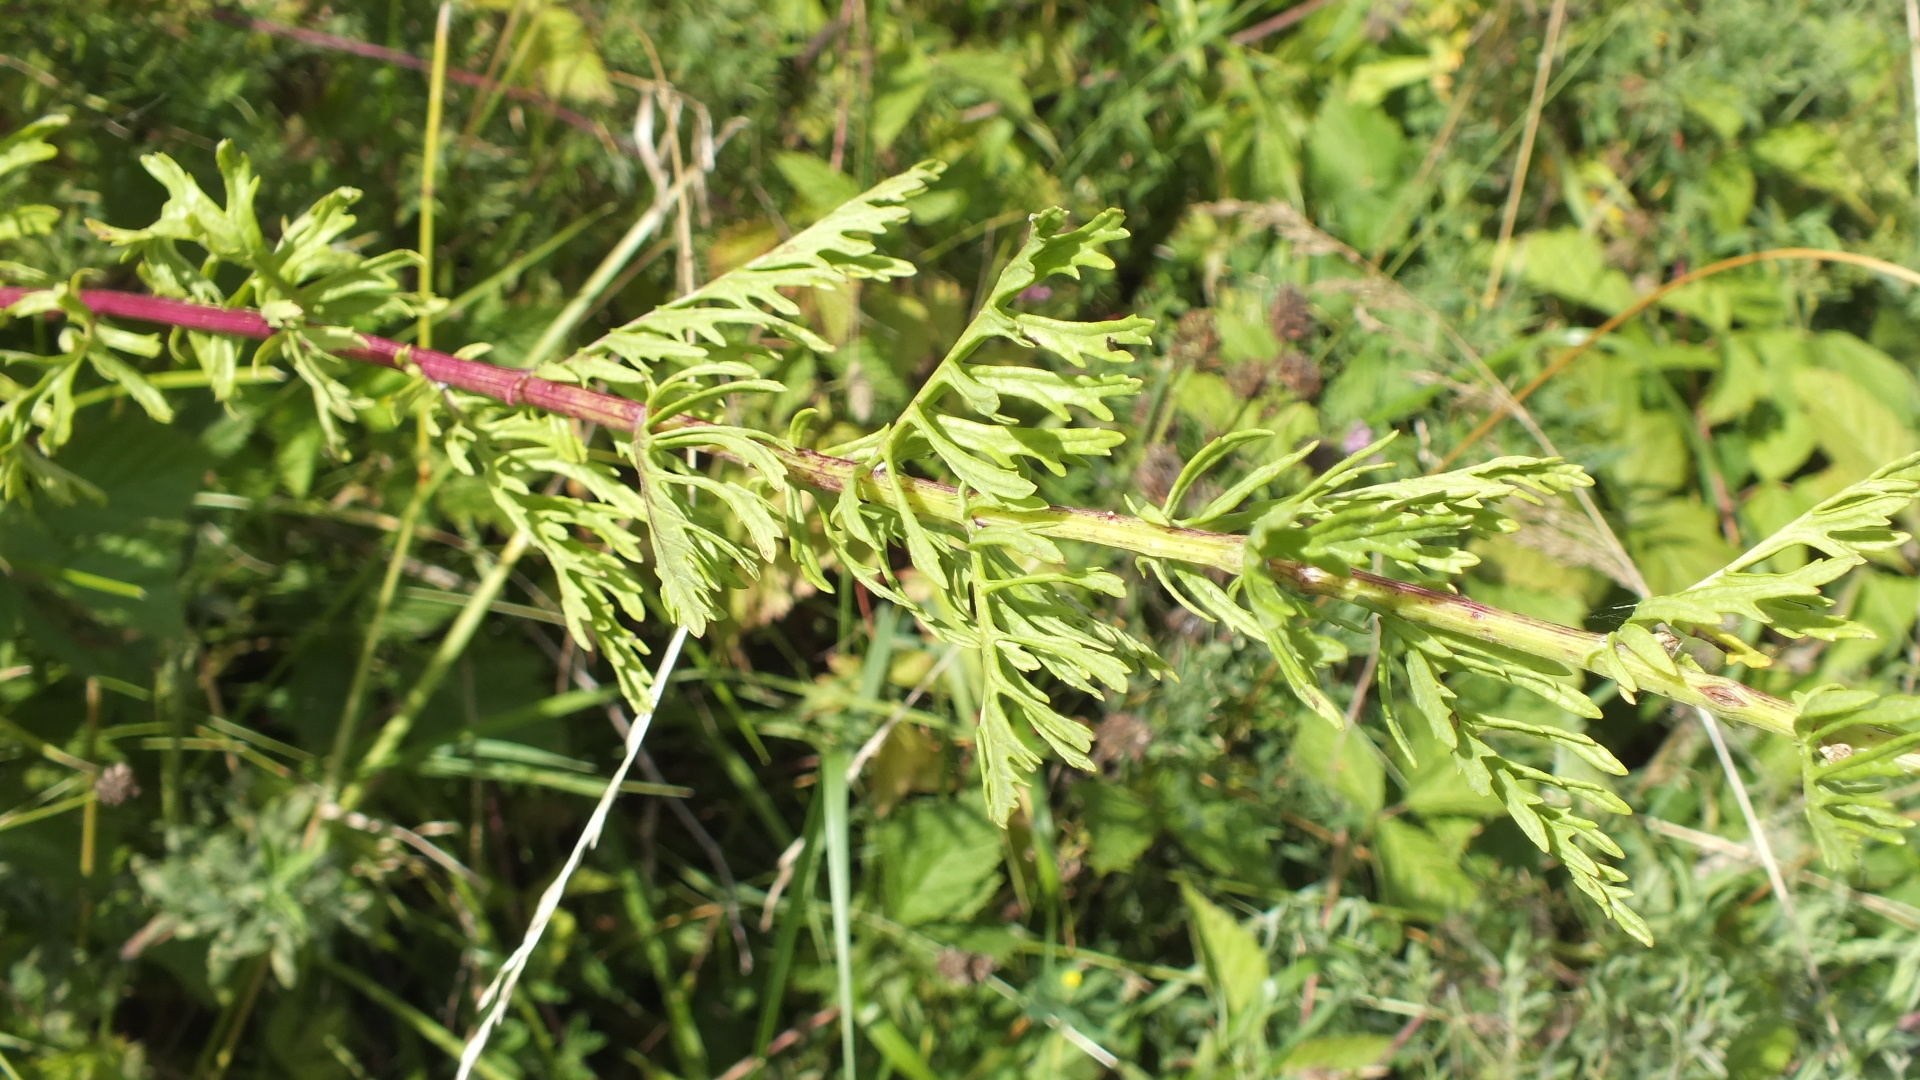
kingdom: Plantae
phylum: Tracheophyta
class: Magnoliopsida
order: Asterales
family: Asteraceae
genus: Jacobaea
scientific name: Jacobaea vulgaris
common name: Stinking willie
